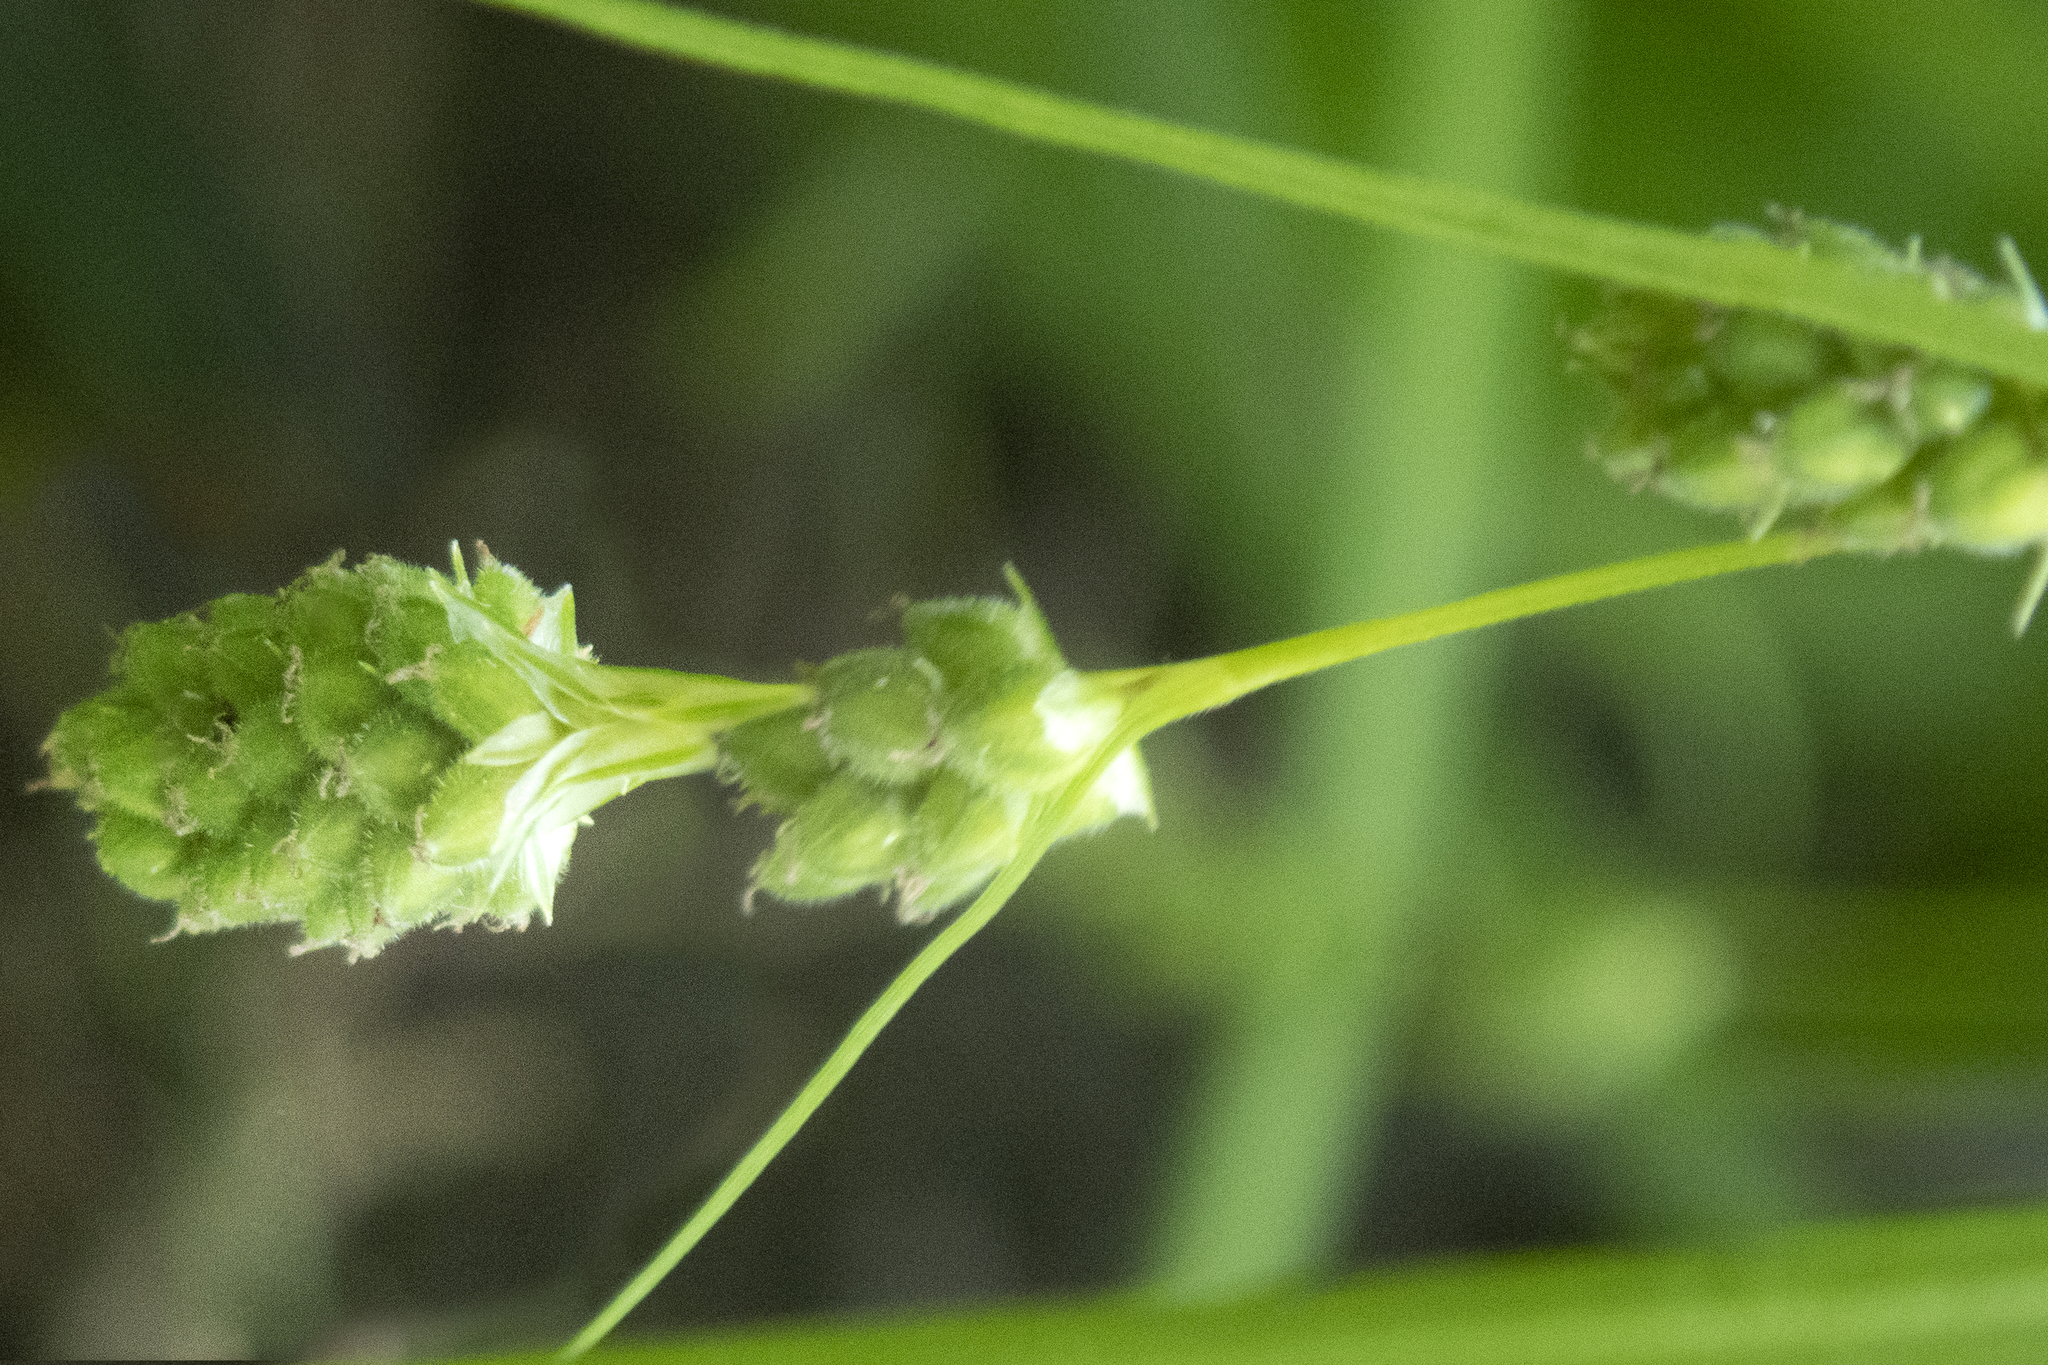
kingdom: Plantae
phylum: Tracheophyta
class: Liliopsida
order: Poales
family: Cyperaceae
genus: Carex
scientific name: Carex swanii
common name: Downy green sedge
